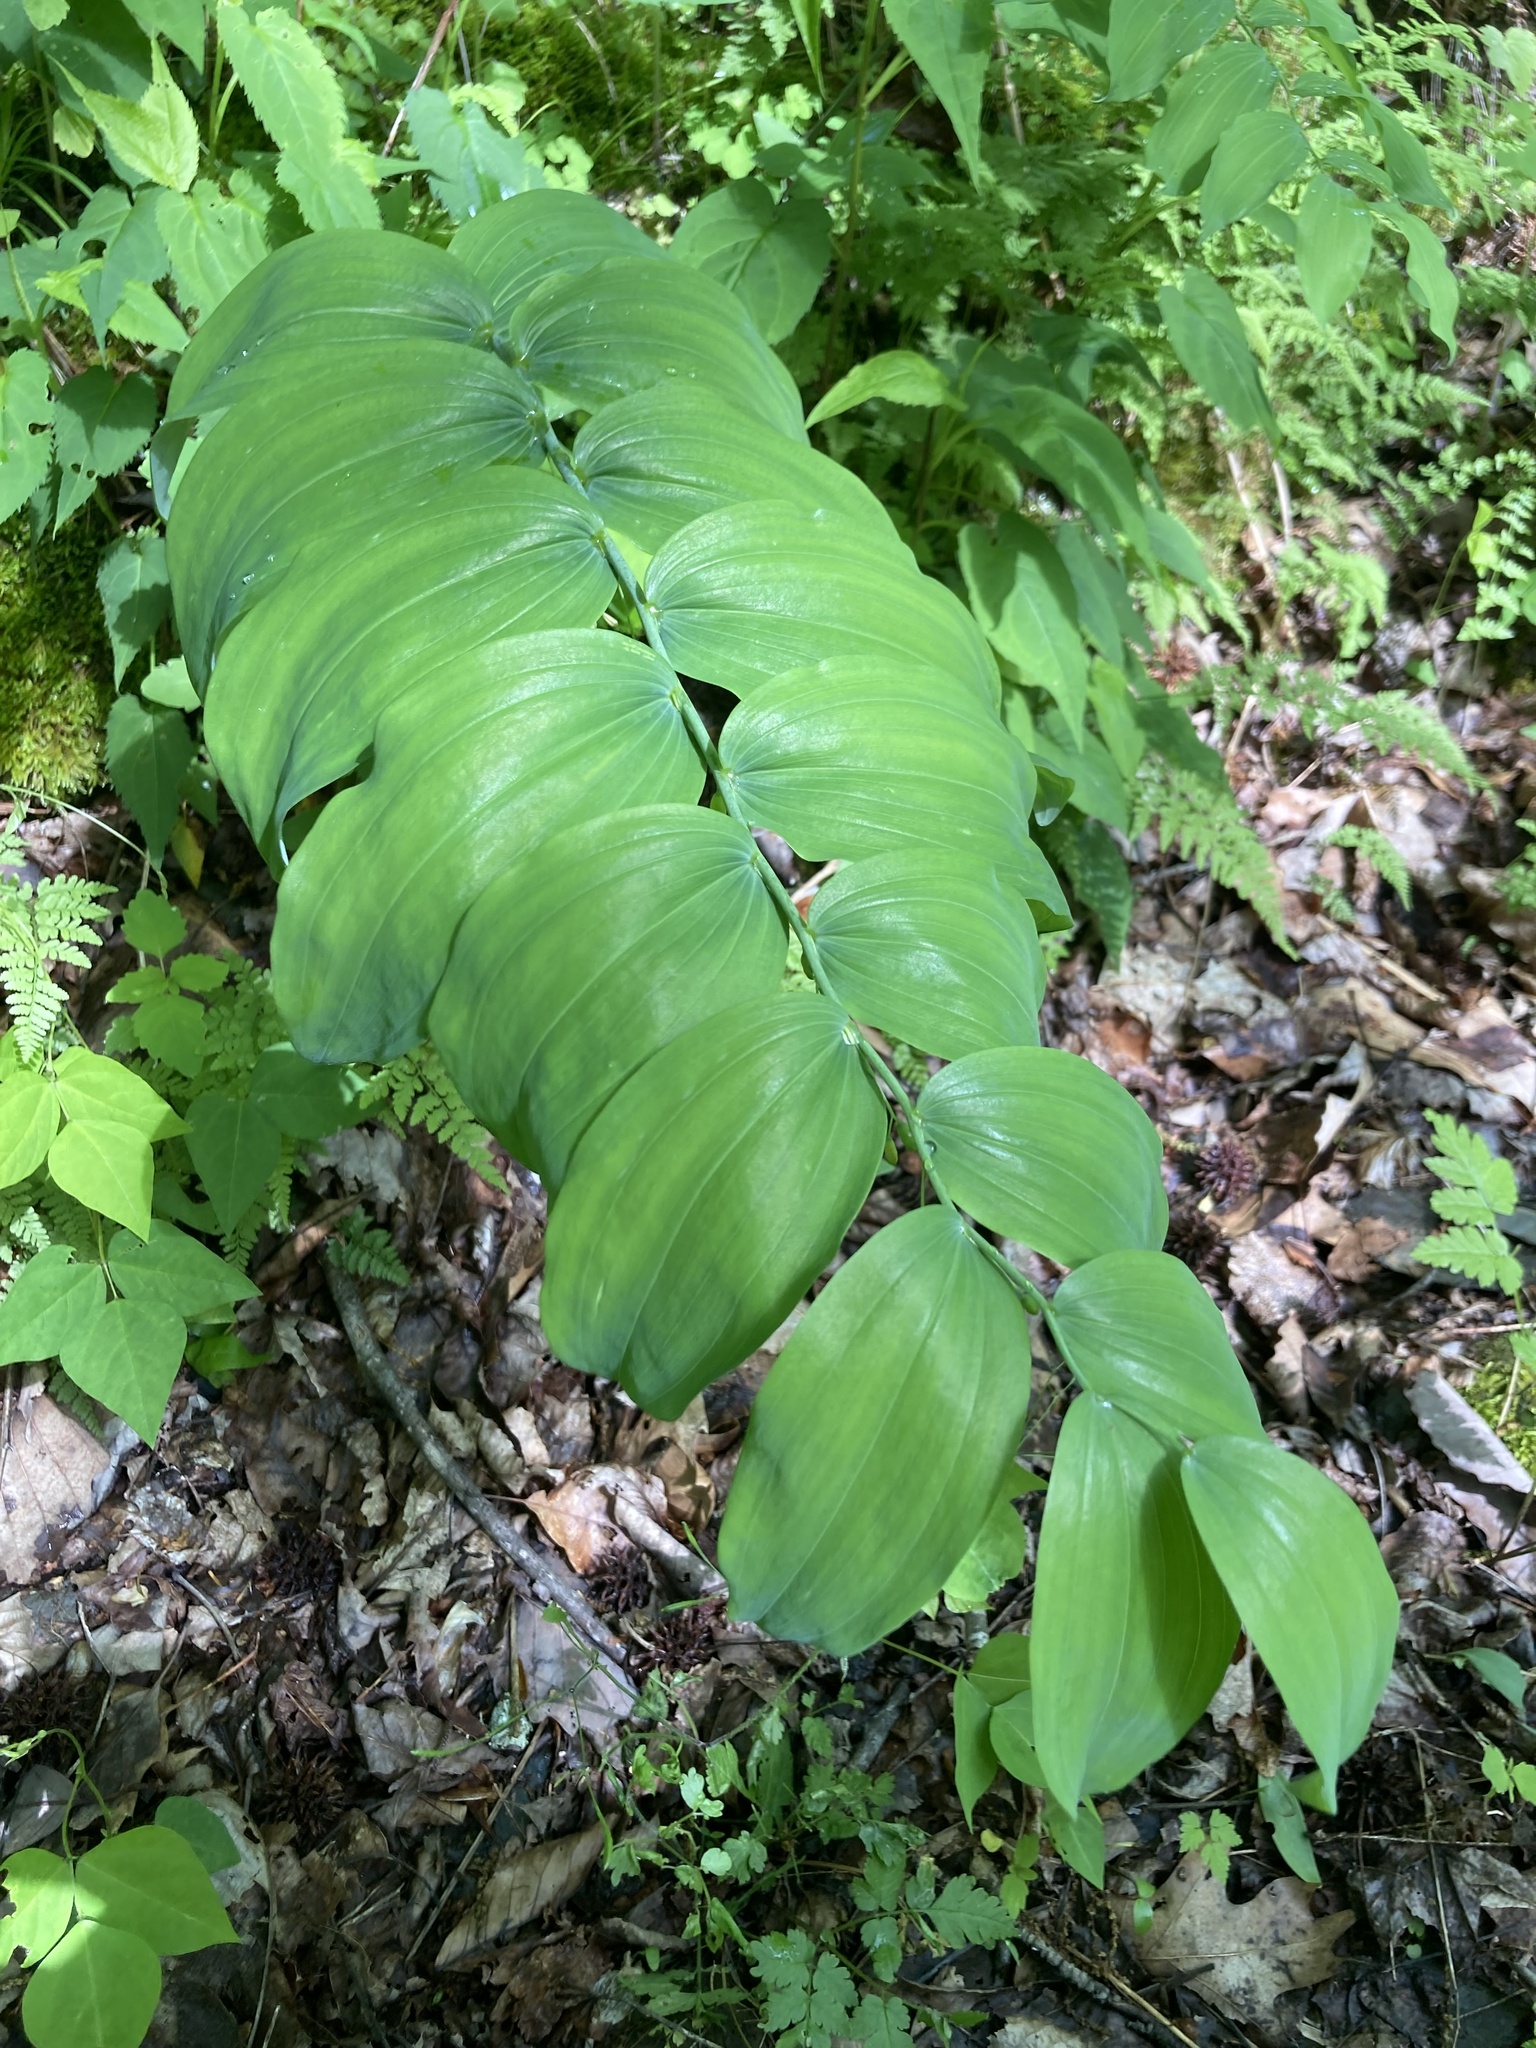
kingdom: Plantae
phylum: Tracheophyta
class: Liliopsida
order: Asparagales
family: Asparagaceae
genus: Polygonatum
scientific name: Polygonatum biflorum
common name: American solomon's-seal
